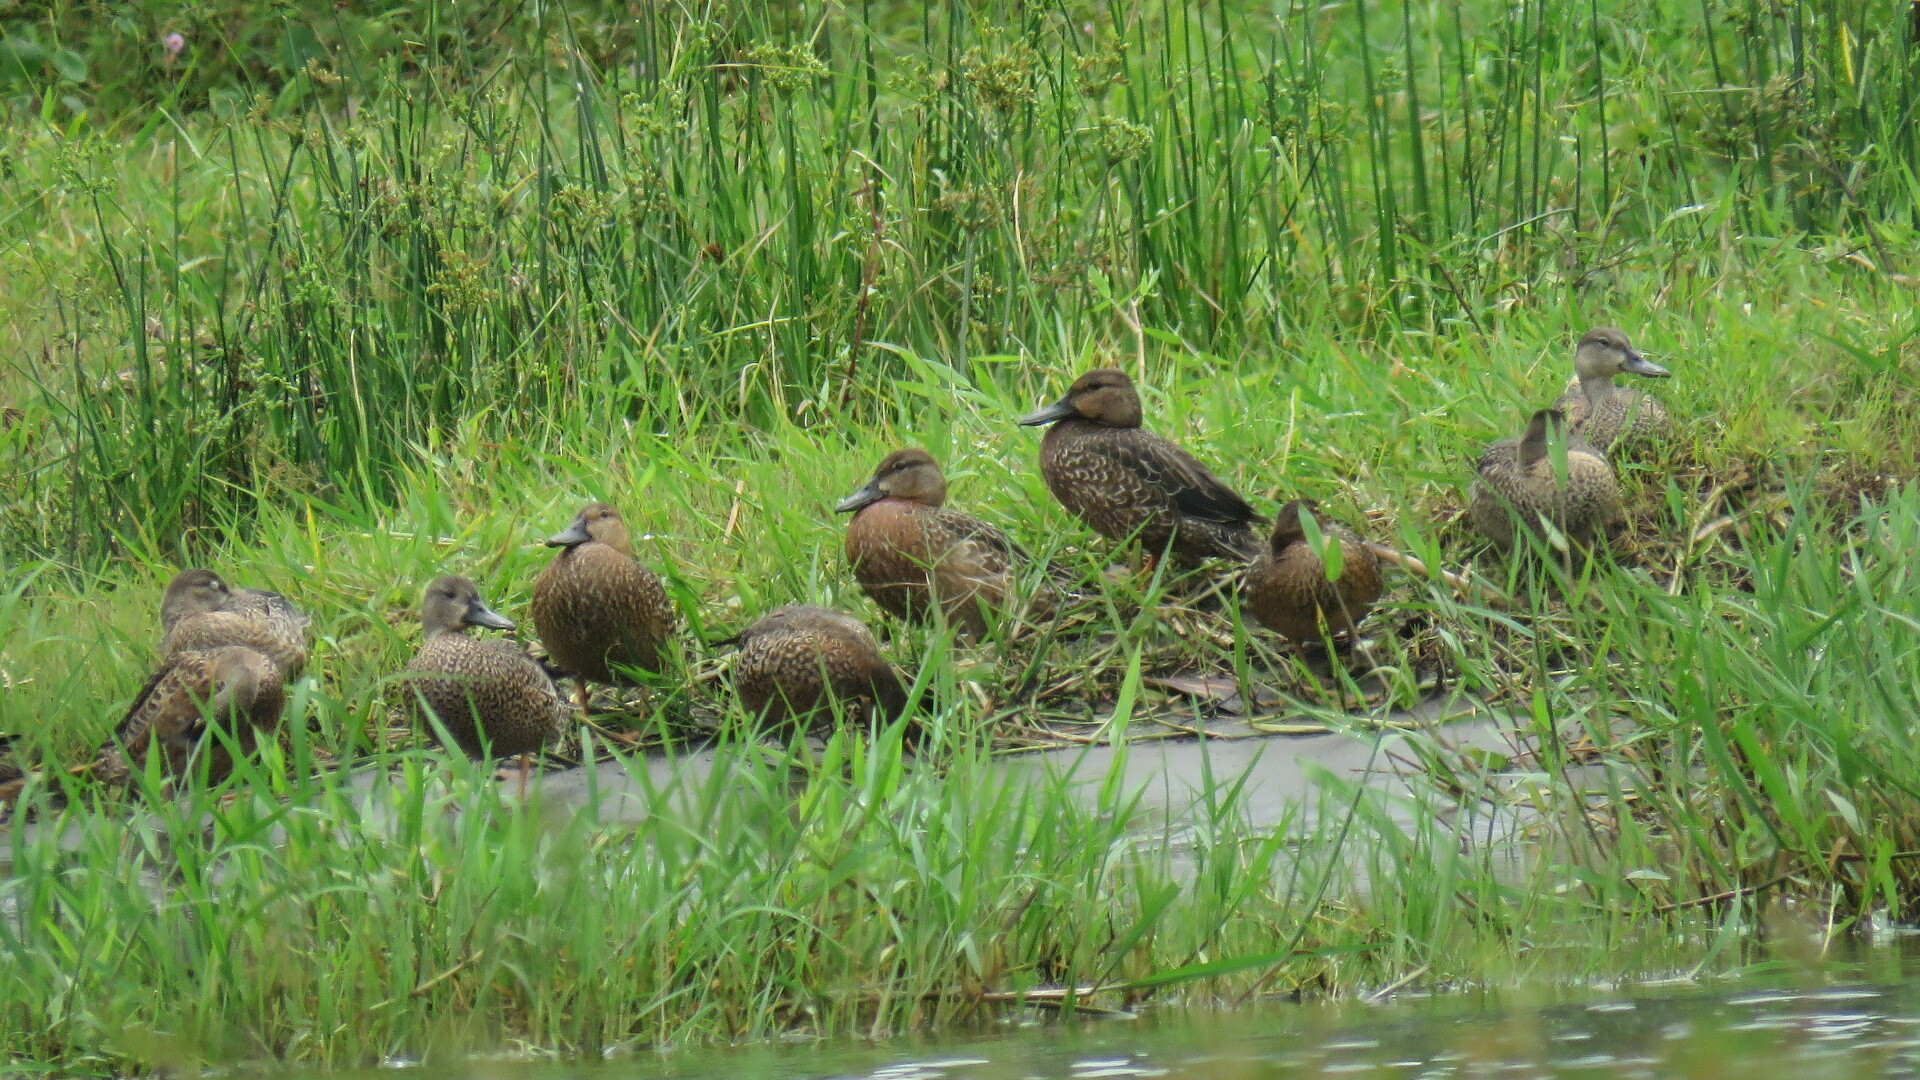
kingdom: Animalia
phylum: Chordata
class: Aves
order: Anseriformes
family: Anatidae
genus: Spatula
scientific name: Spatula discors
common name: Blue-winged teal
